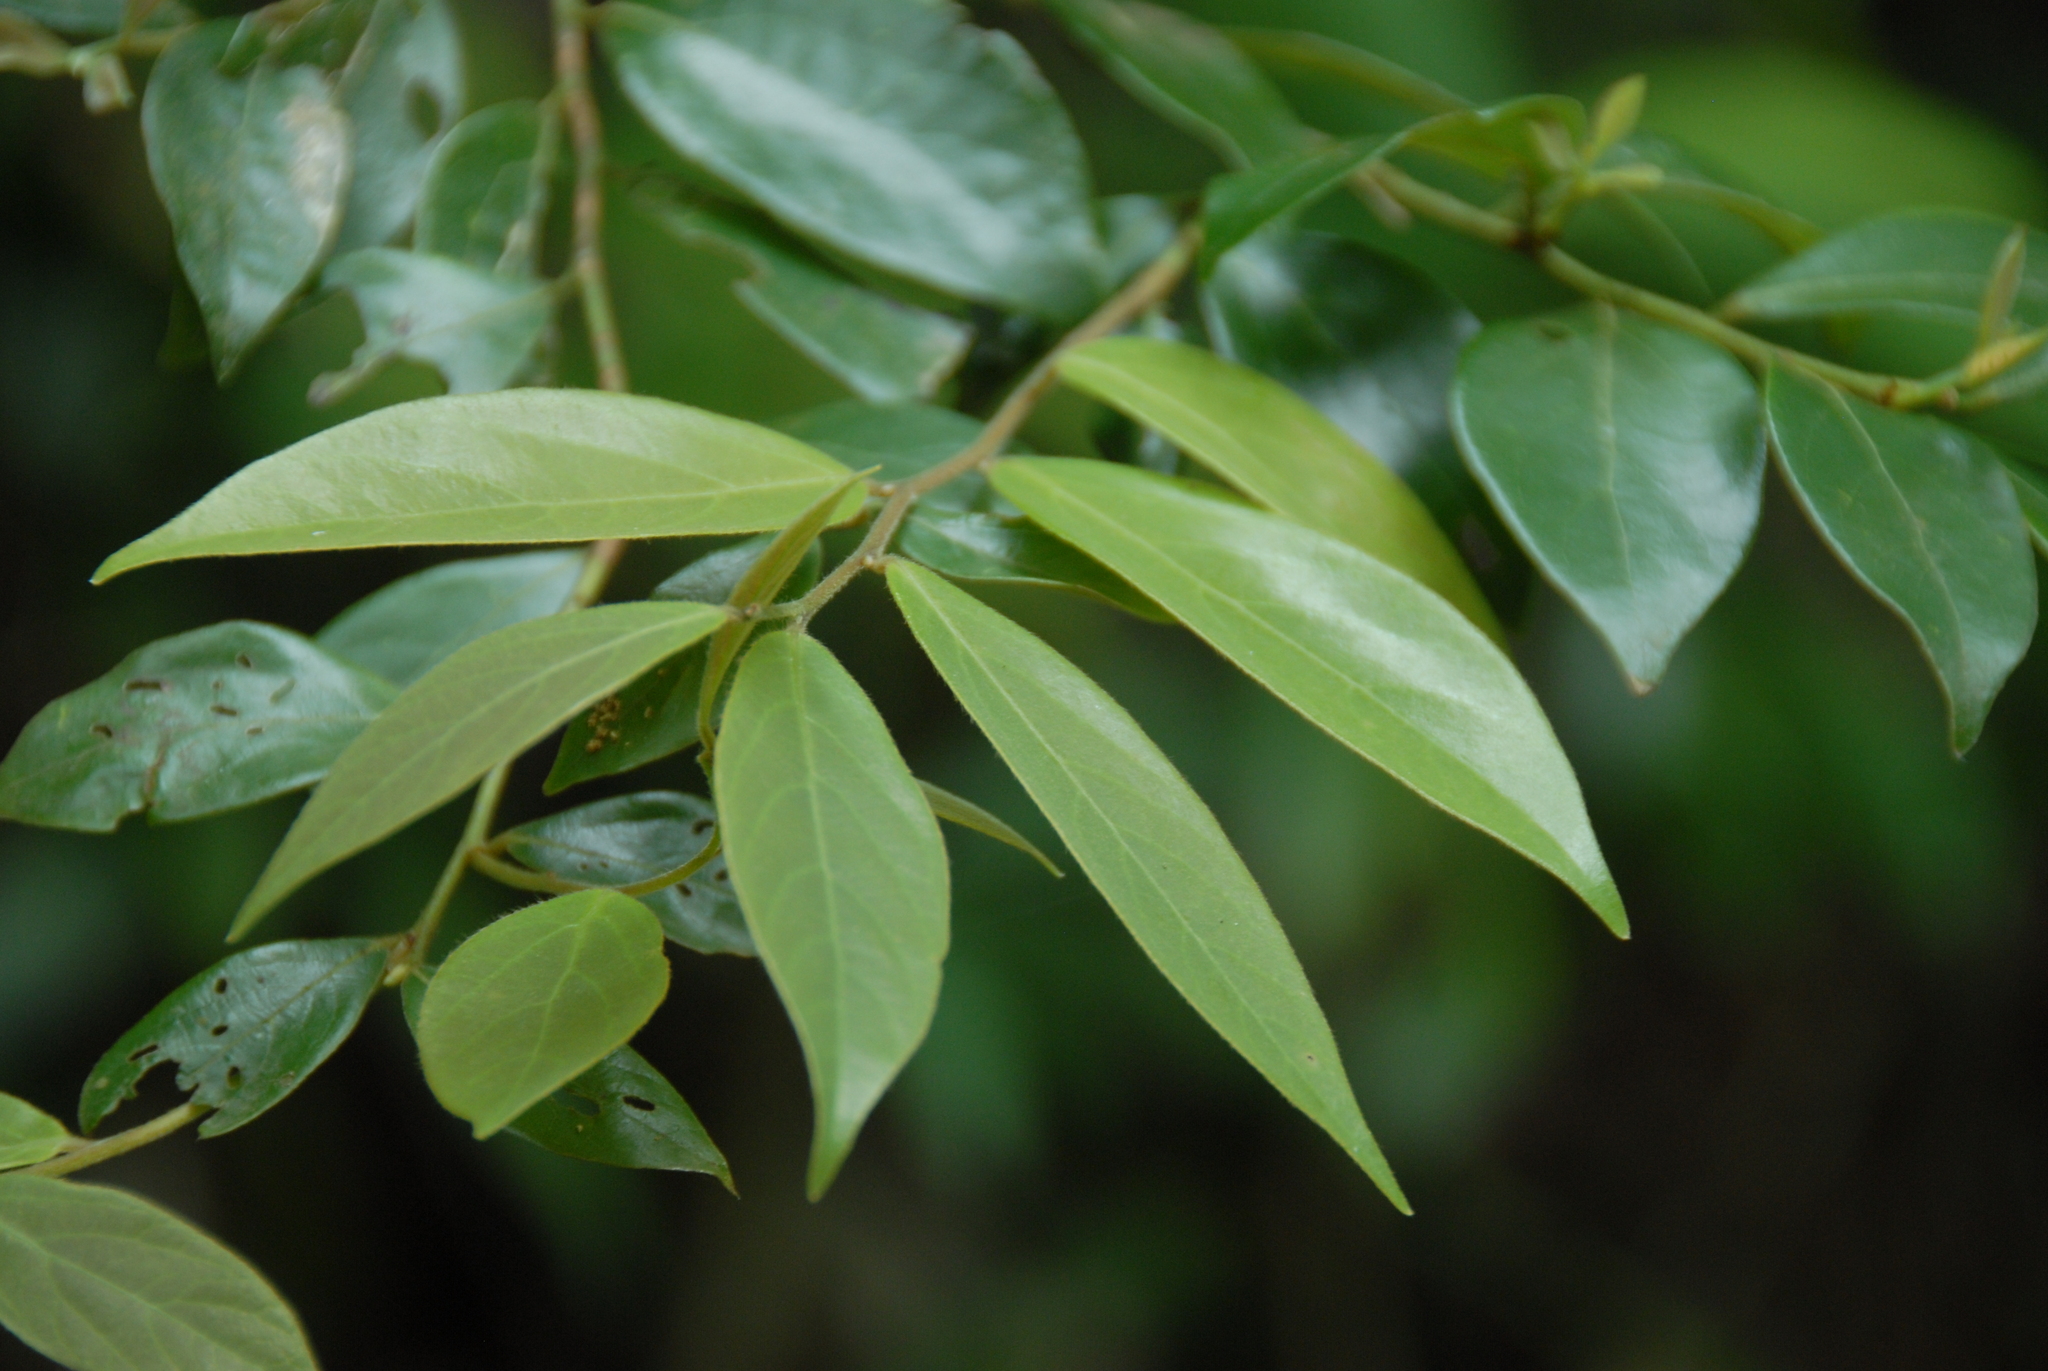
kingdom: Plantae
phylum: Tracheophyta
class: Magnoliopsida
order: Laurales
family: Lauraceae
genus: Lindera
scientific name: Lindera communis
